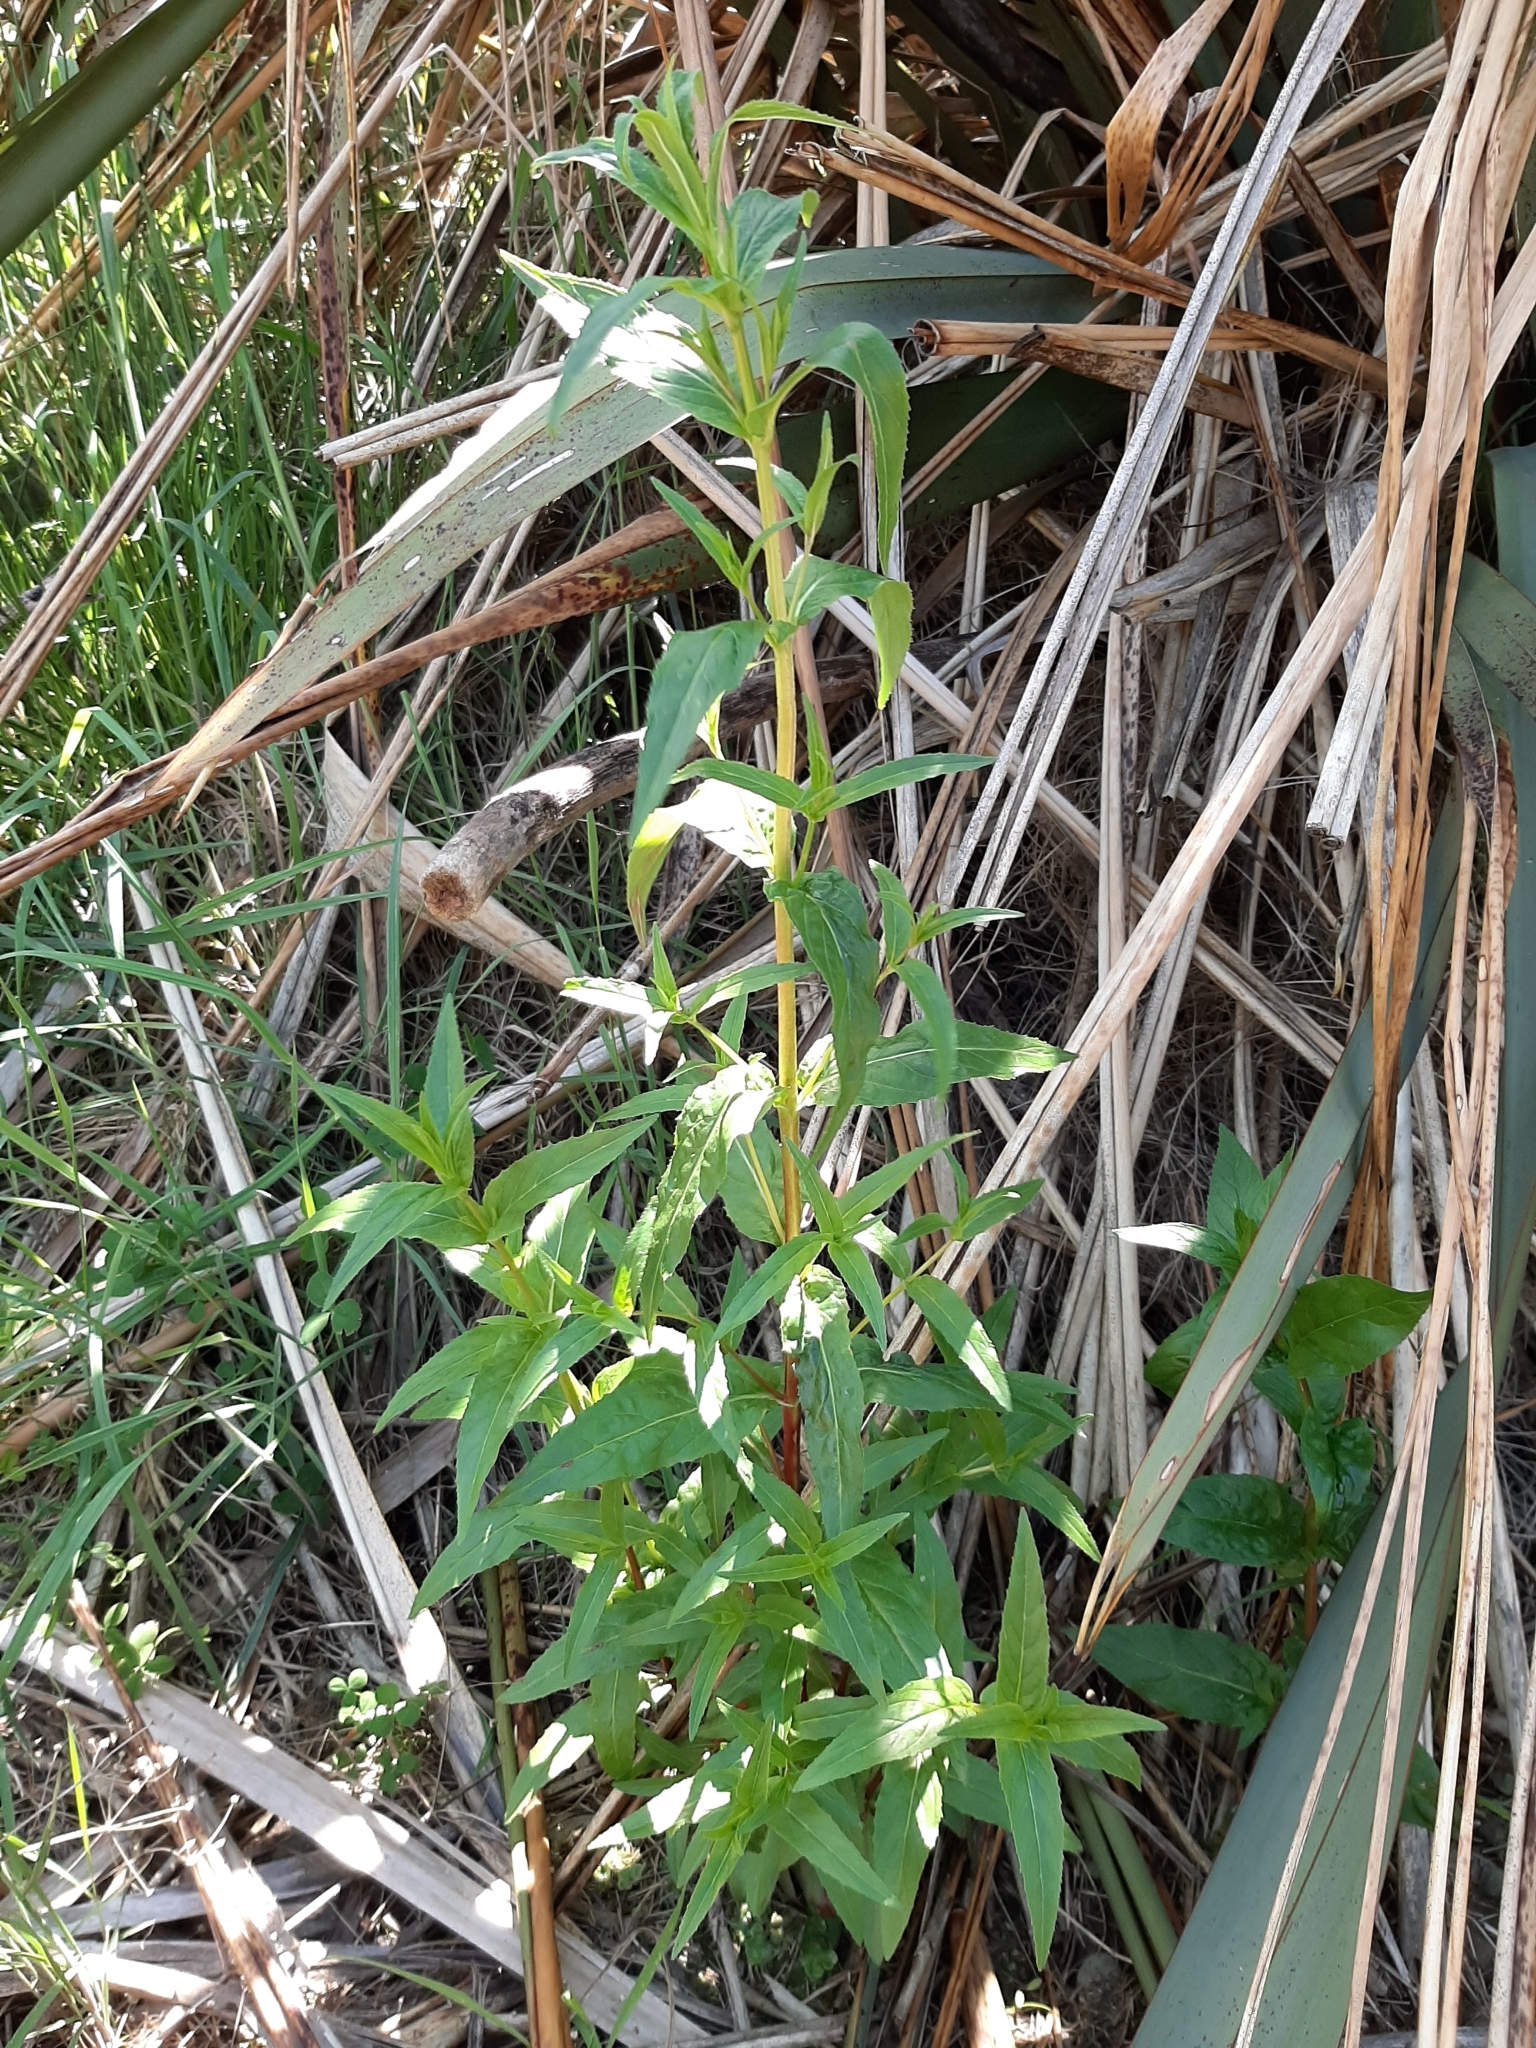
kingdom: Plantae
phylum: Tracheophyta
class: Magnoliopsida
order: Myrtales
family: Onagraceae
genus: Epilobium
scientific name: Epilobium ciliatum
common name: American willowherb
